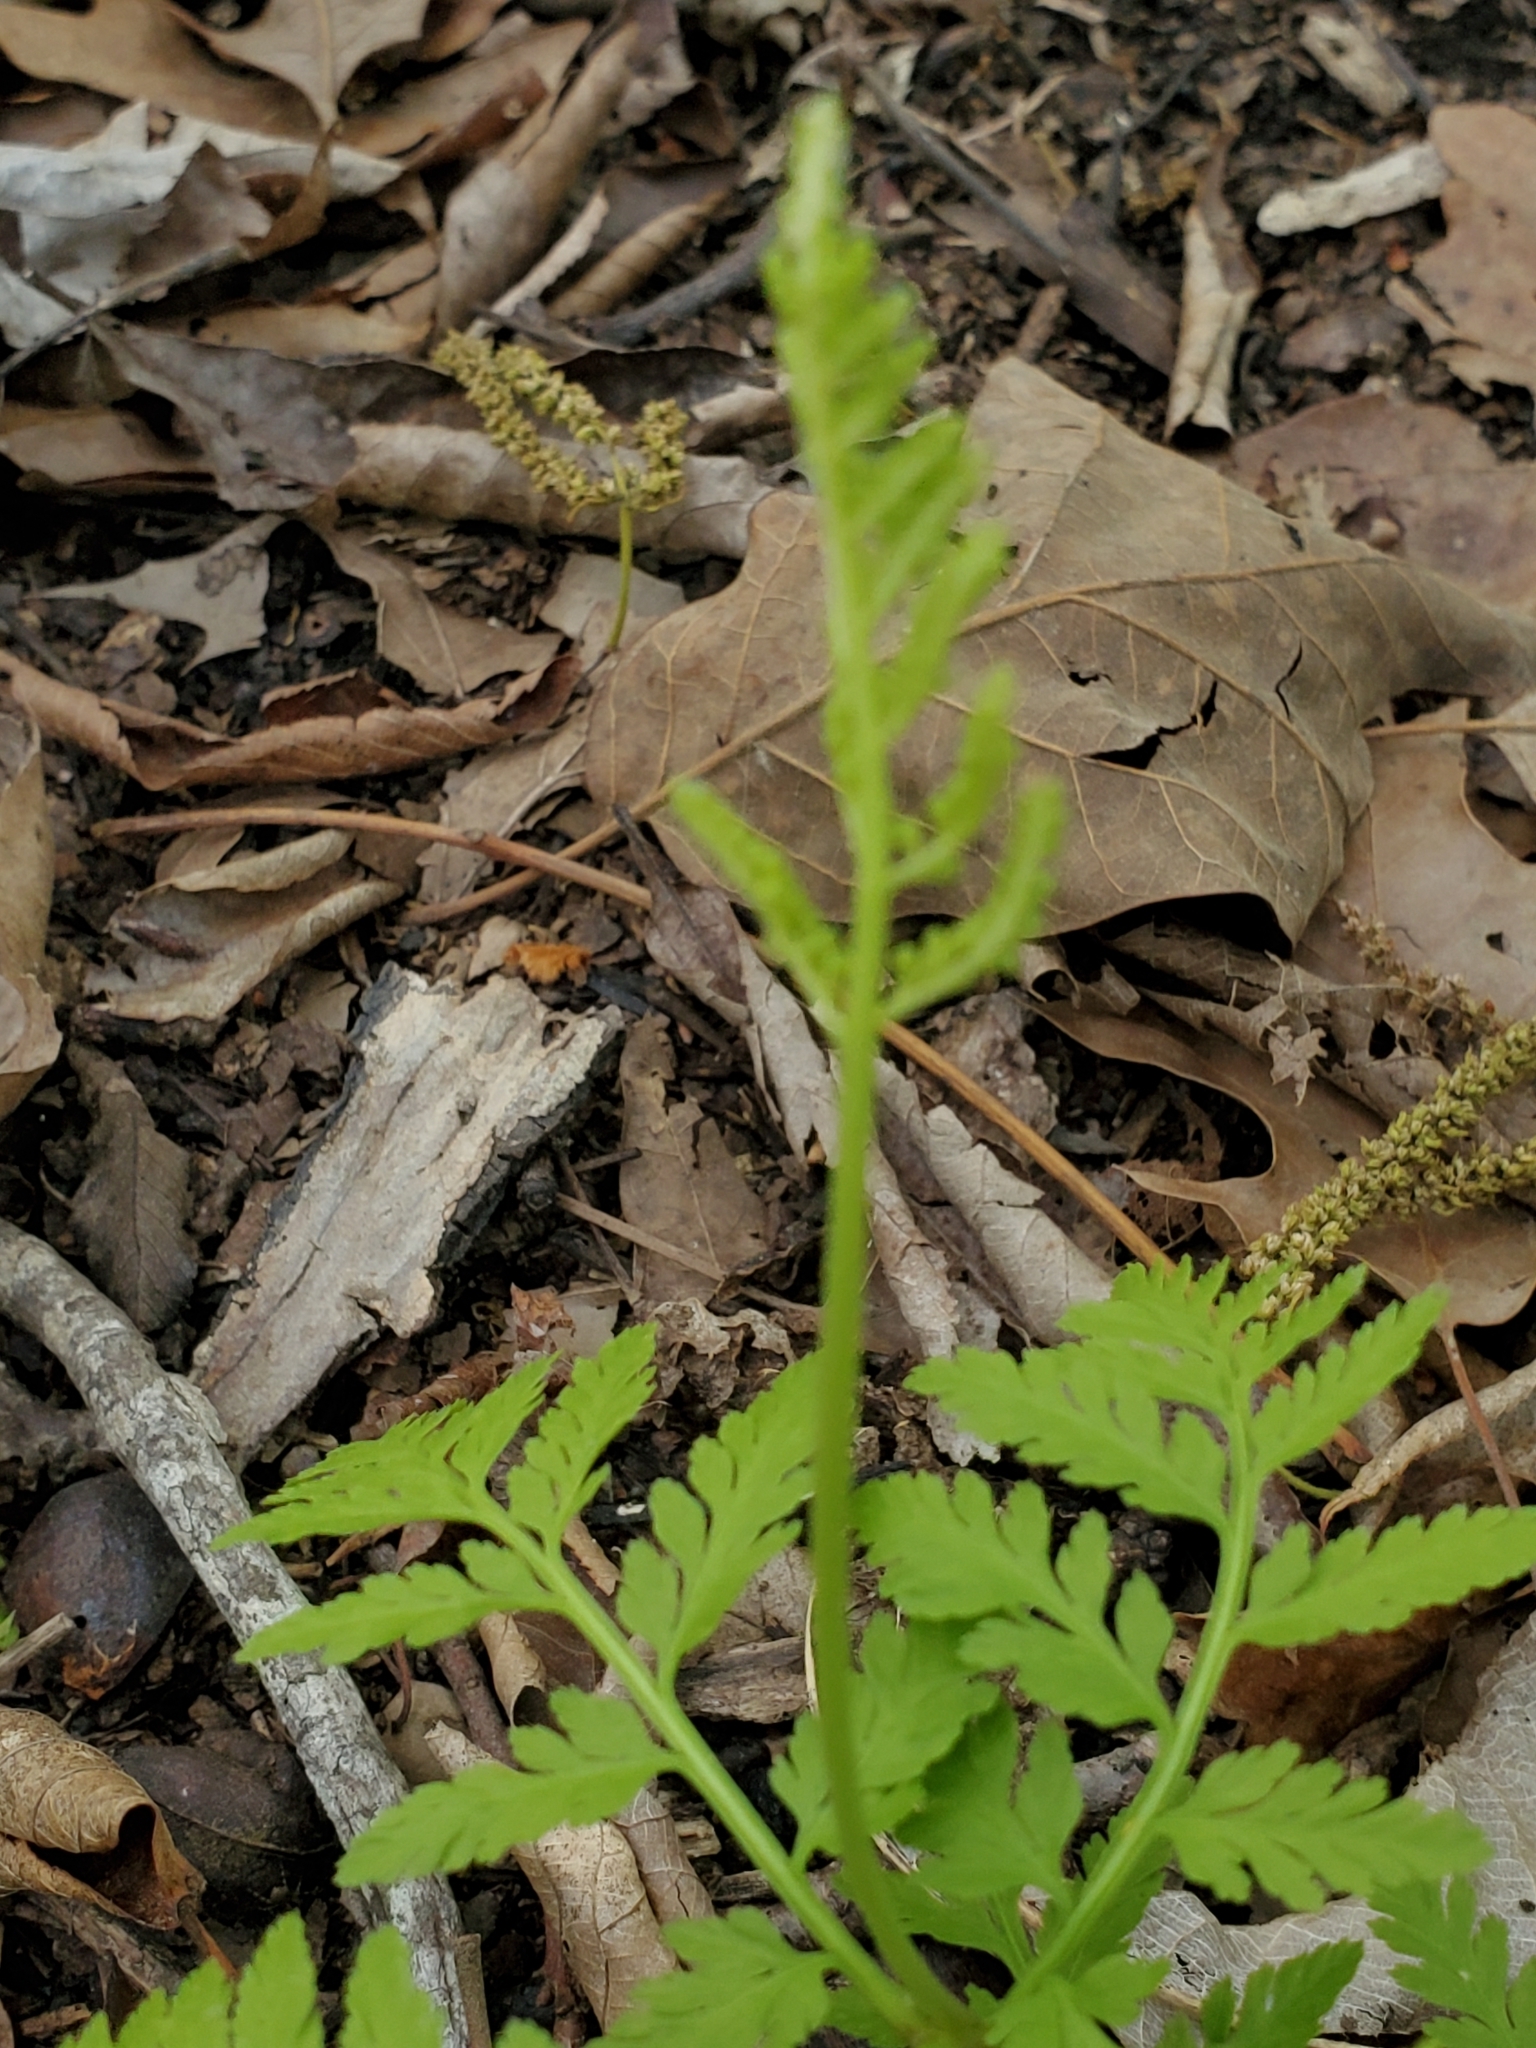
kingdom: Plantae
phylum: Tracheophyta
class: Polypodiopsida
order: Ophioglossales
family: Ophioglossaceae
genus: Botrypus
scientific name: Botrypus virginianus
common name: Common grapefern
